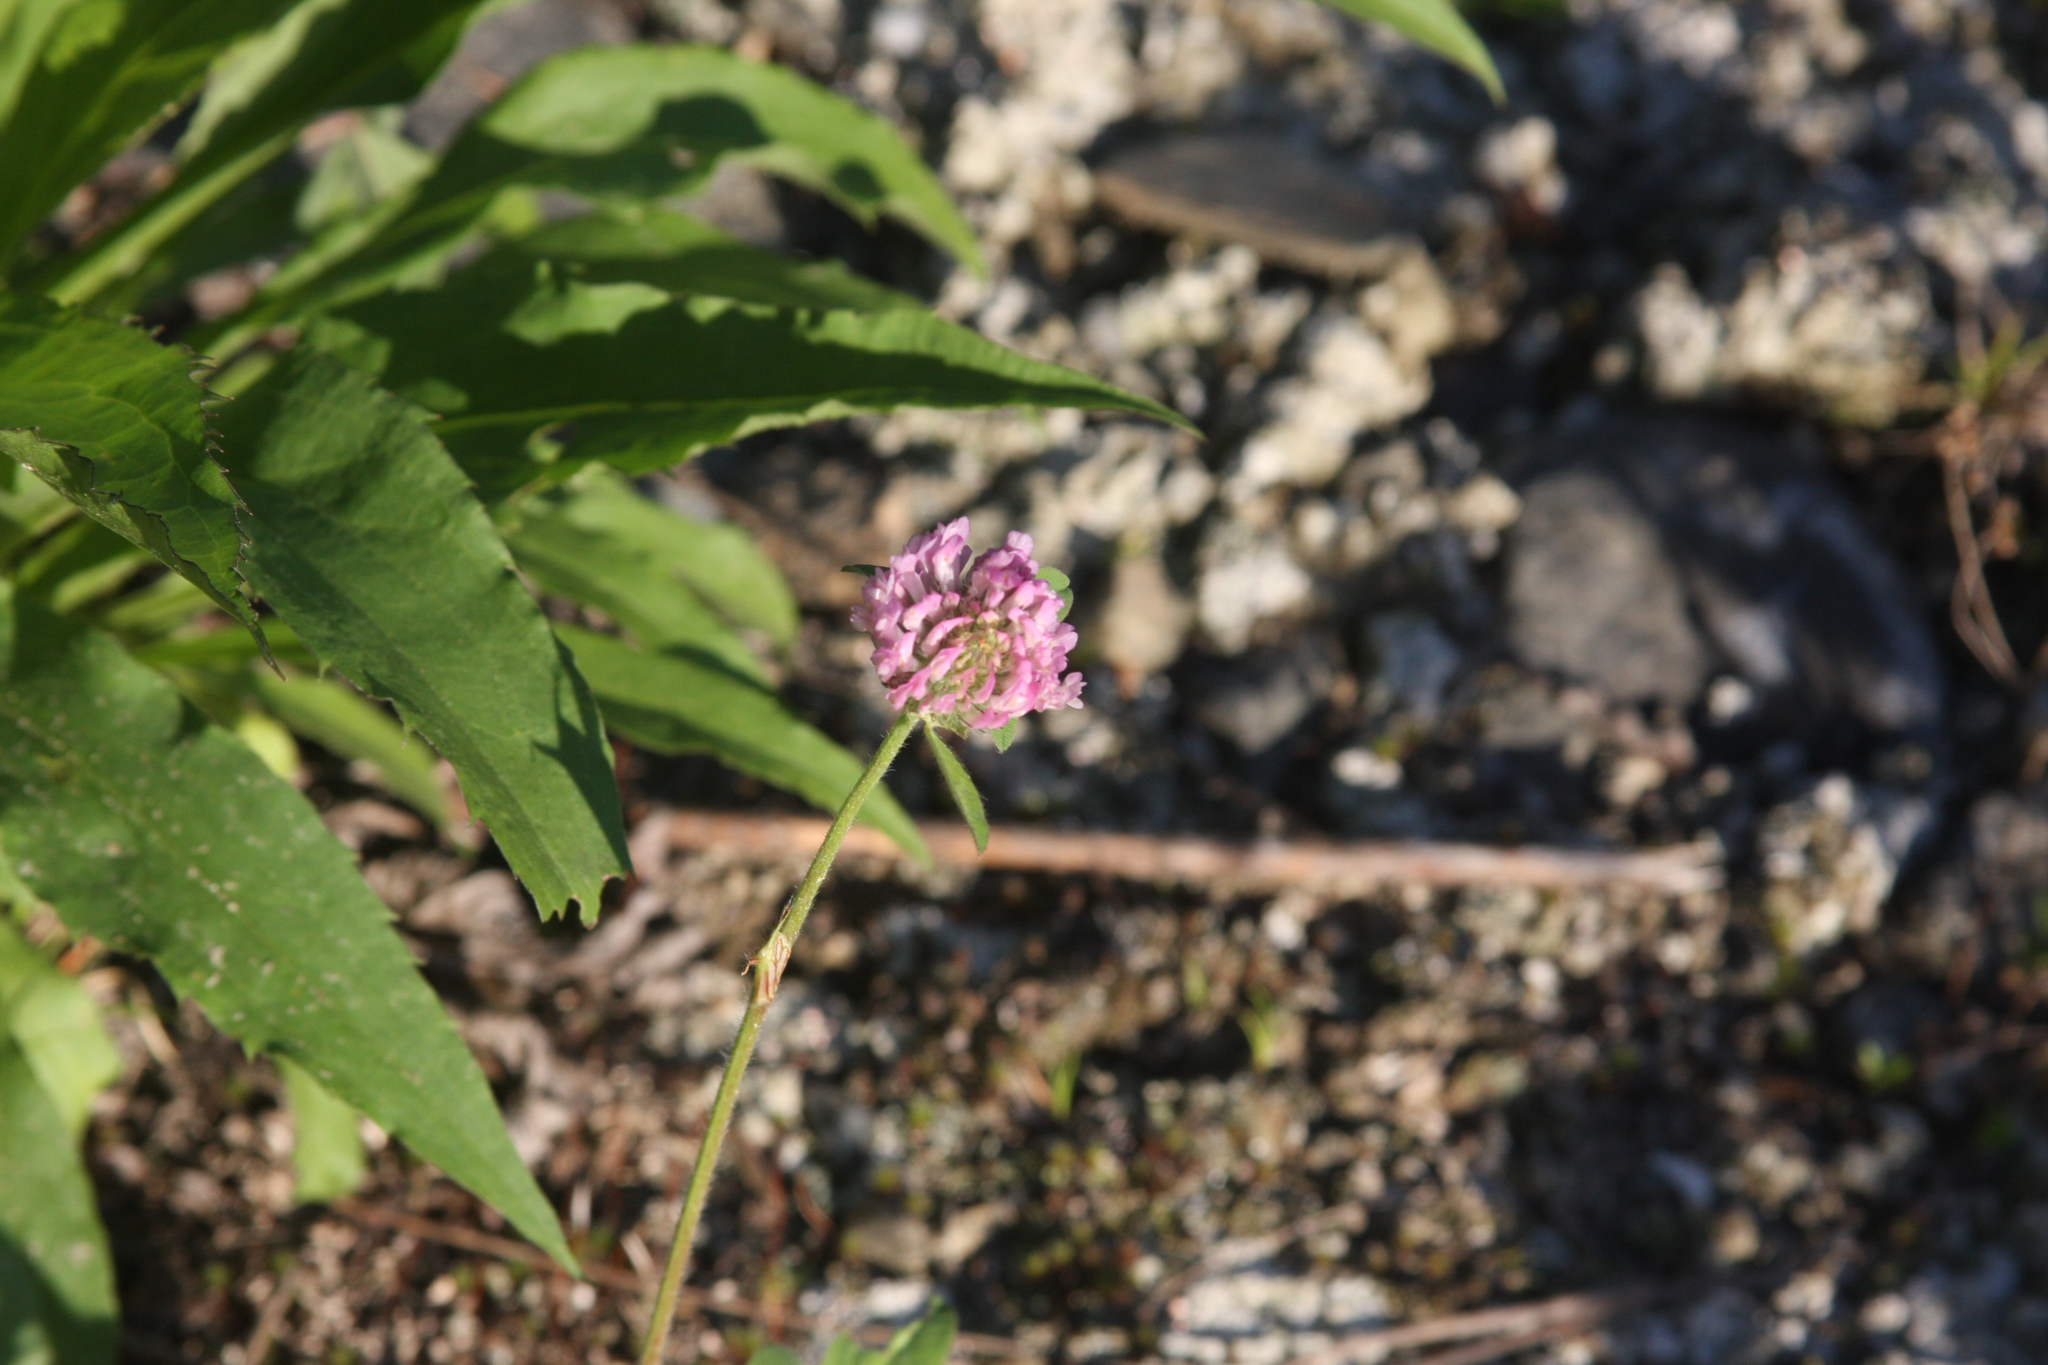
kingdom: Plantae
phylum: Tracheophyta
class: Magnoliopsida
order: Fabales
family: Fabaceae
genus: Trifolium
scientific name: Trifolium pratense
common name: Red clover
